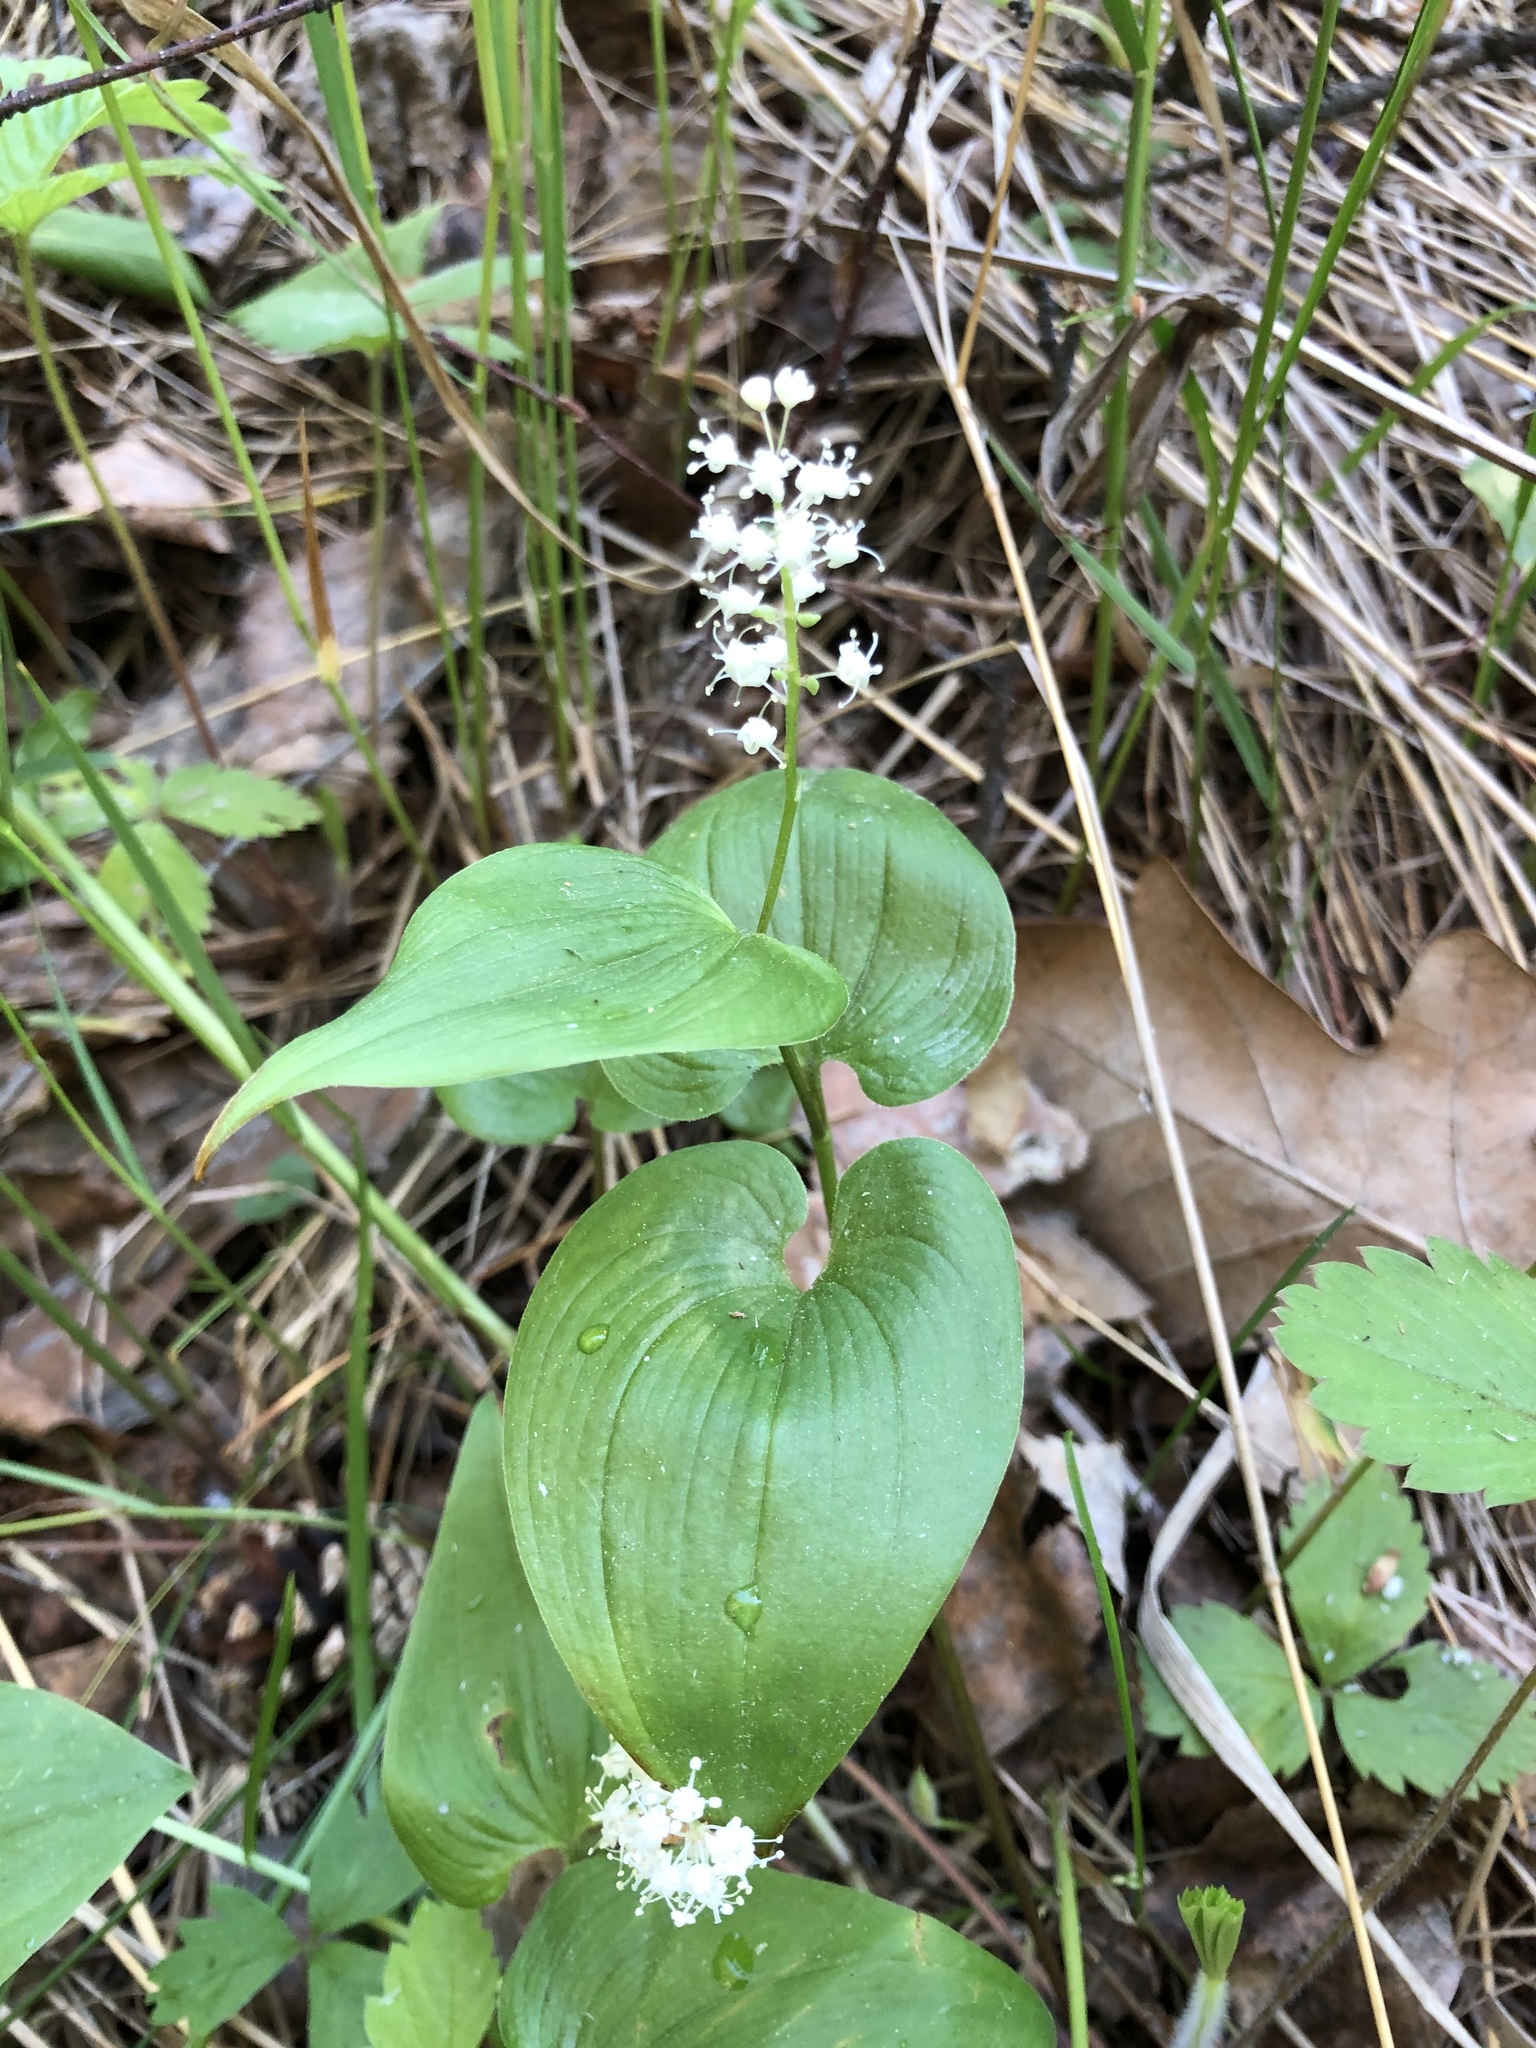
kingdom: Plantae
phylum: Tracheophyta
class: Liliopsida
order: Asparagales
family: Asparagaceae
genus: Maianthemum
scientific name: Maianthemum bifolium
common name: May lily
